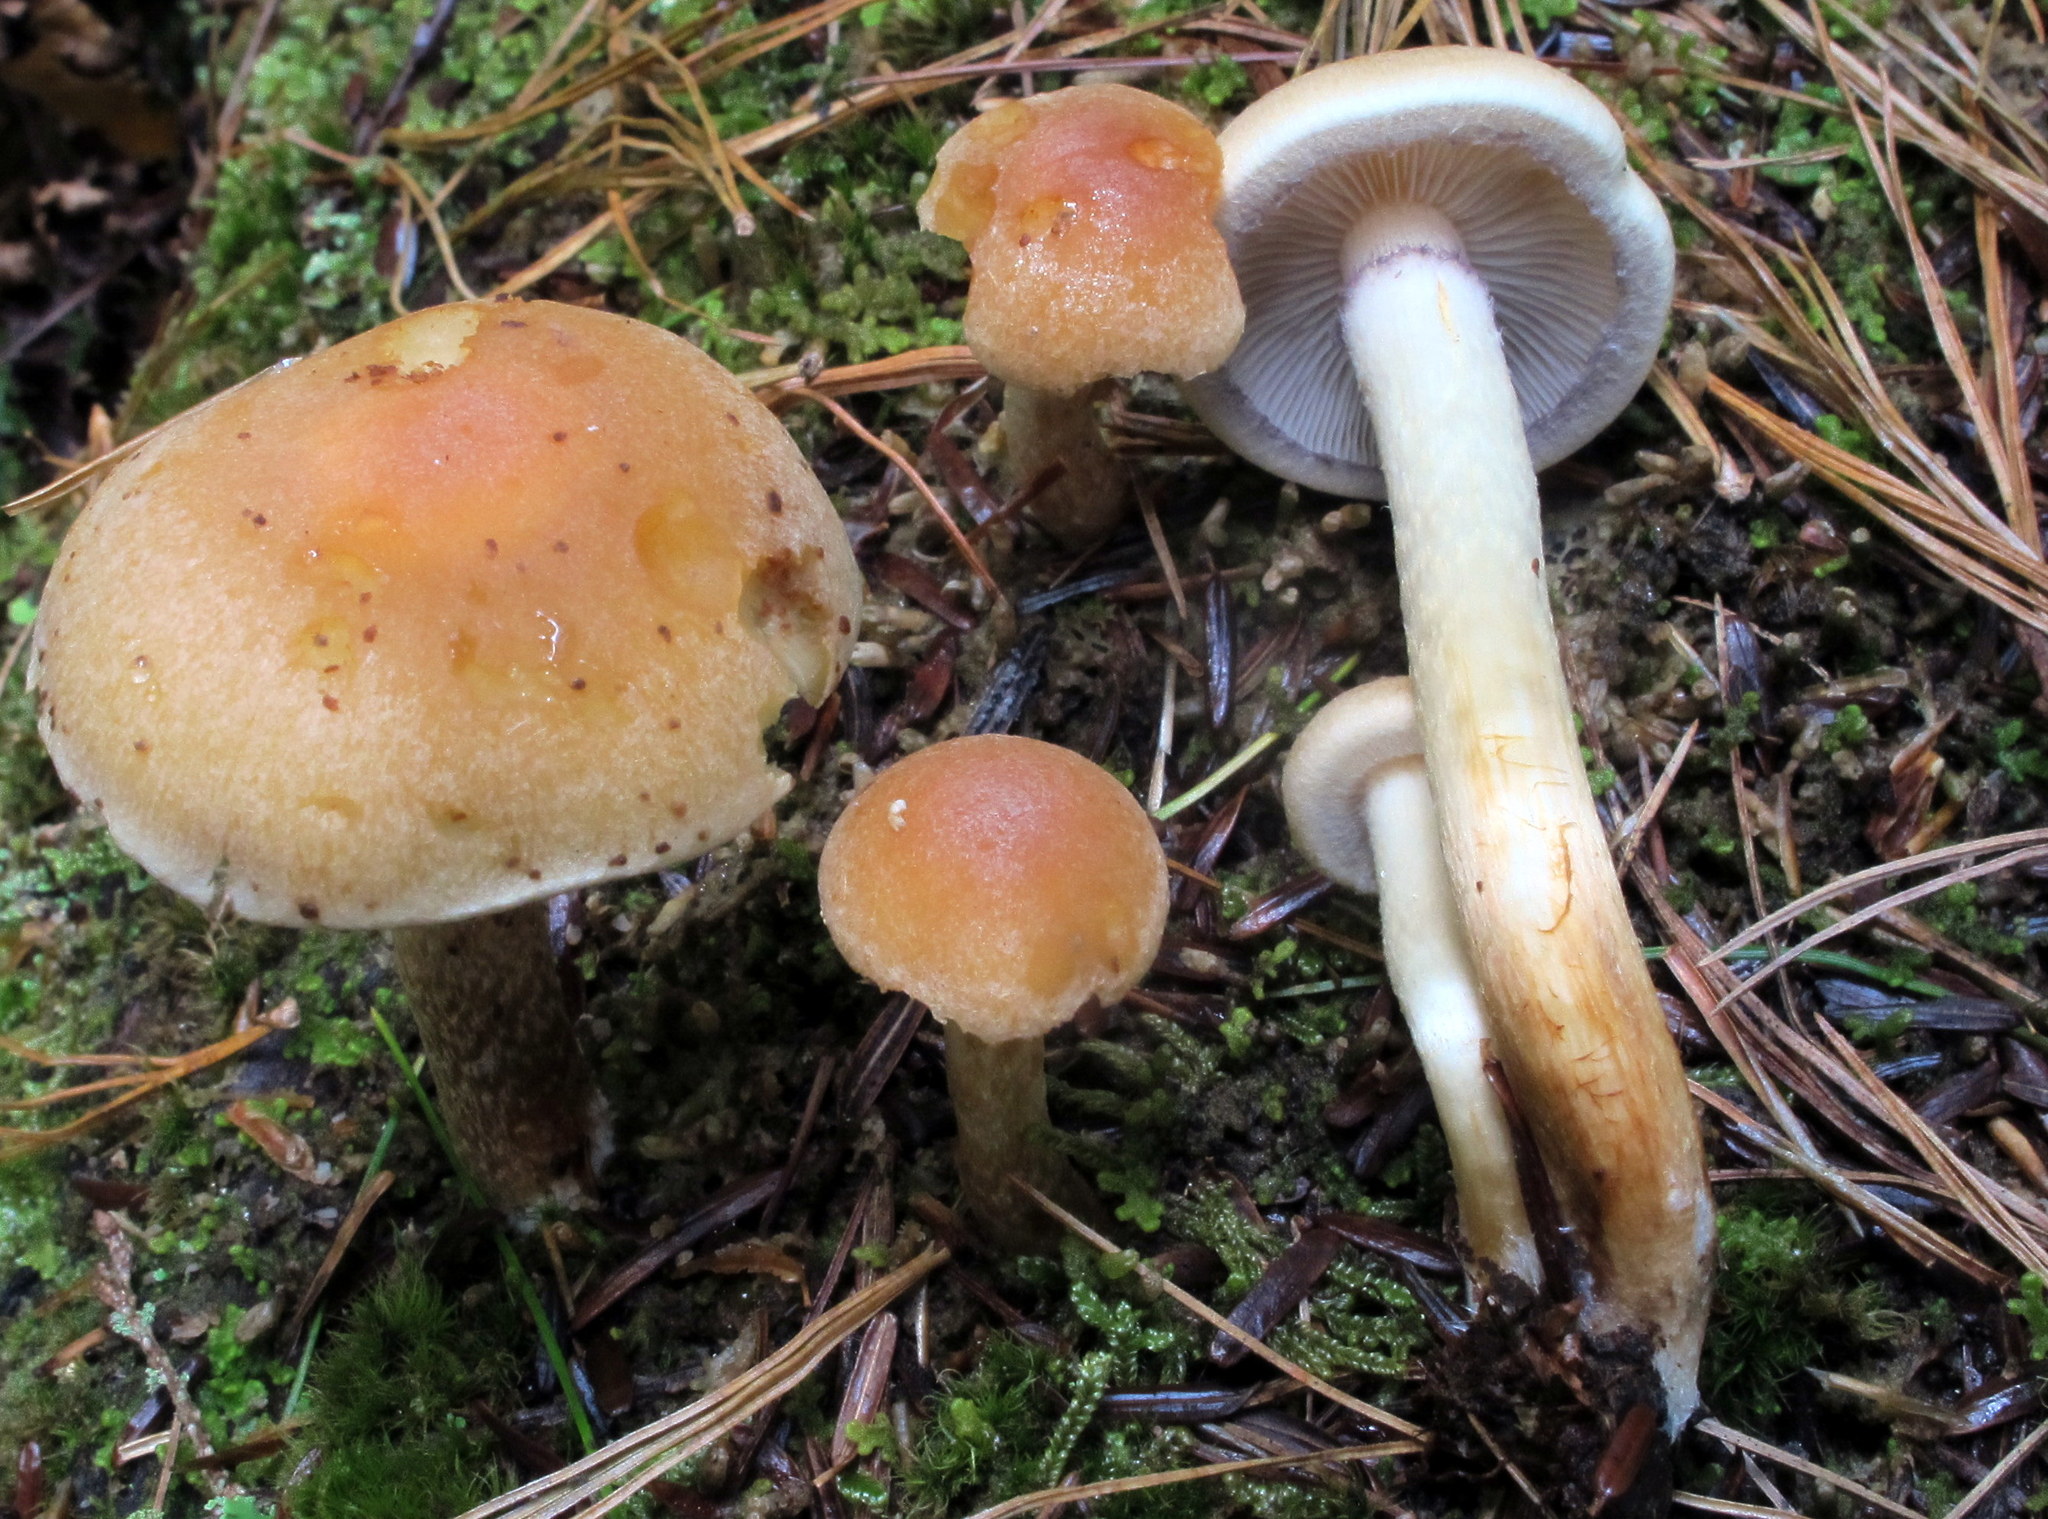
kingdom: Fungi
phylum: Basidiomycota
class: Agaricomycetes
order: Agaricales
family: Strophariaceae
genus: Hypholoma
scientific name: Hypholoma capnoides
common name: Conifer tuft
